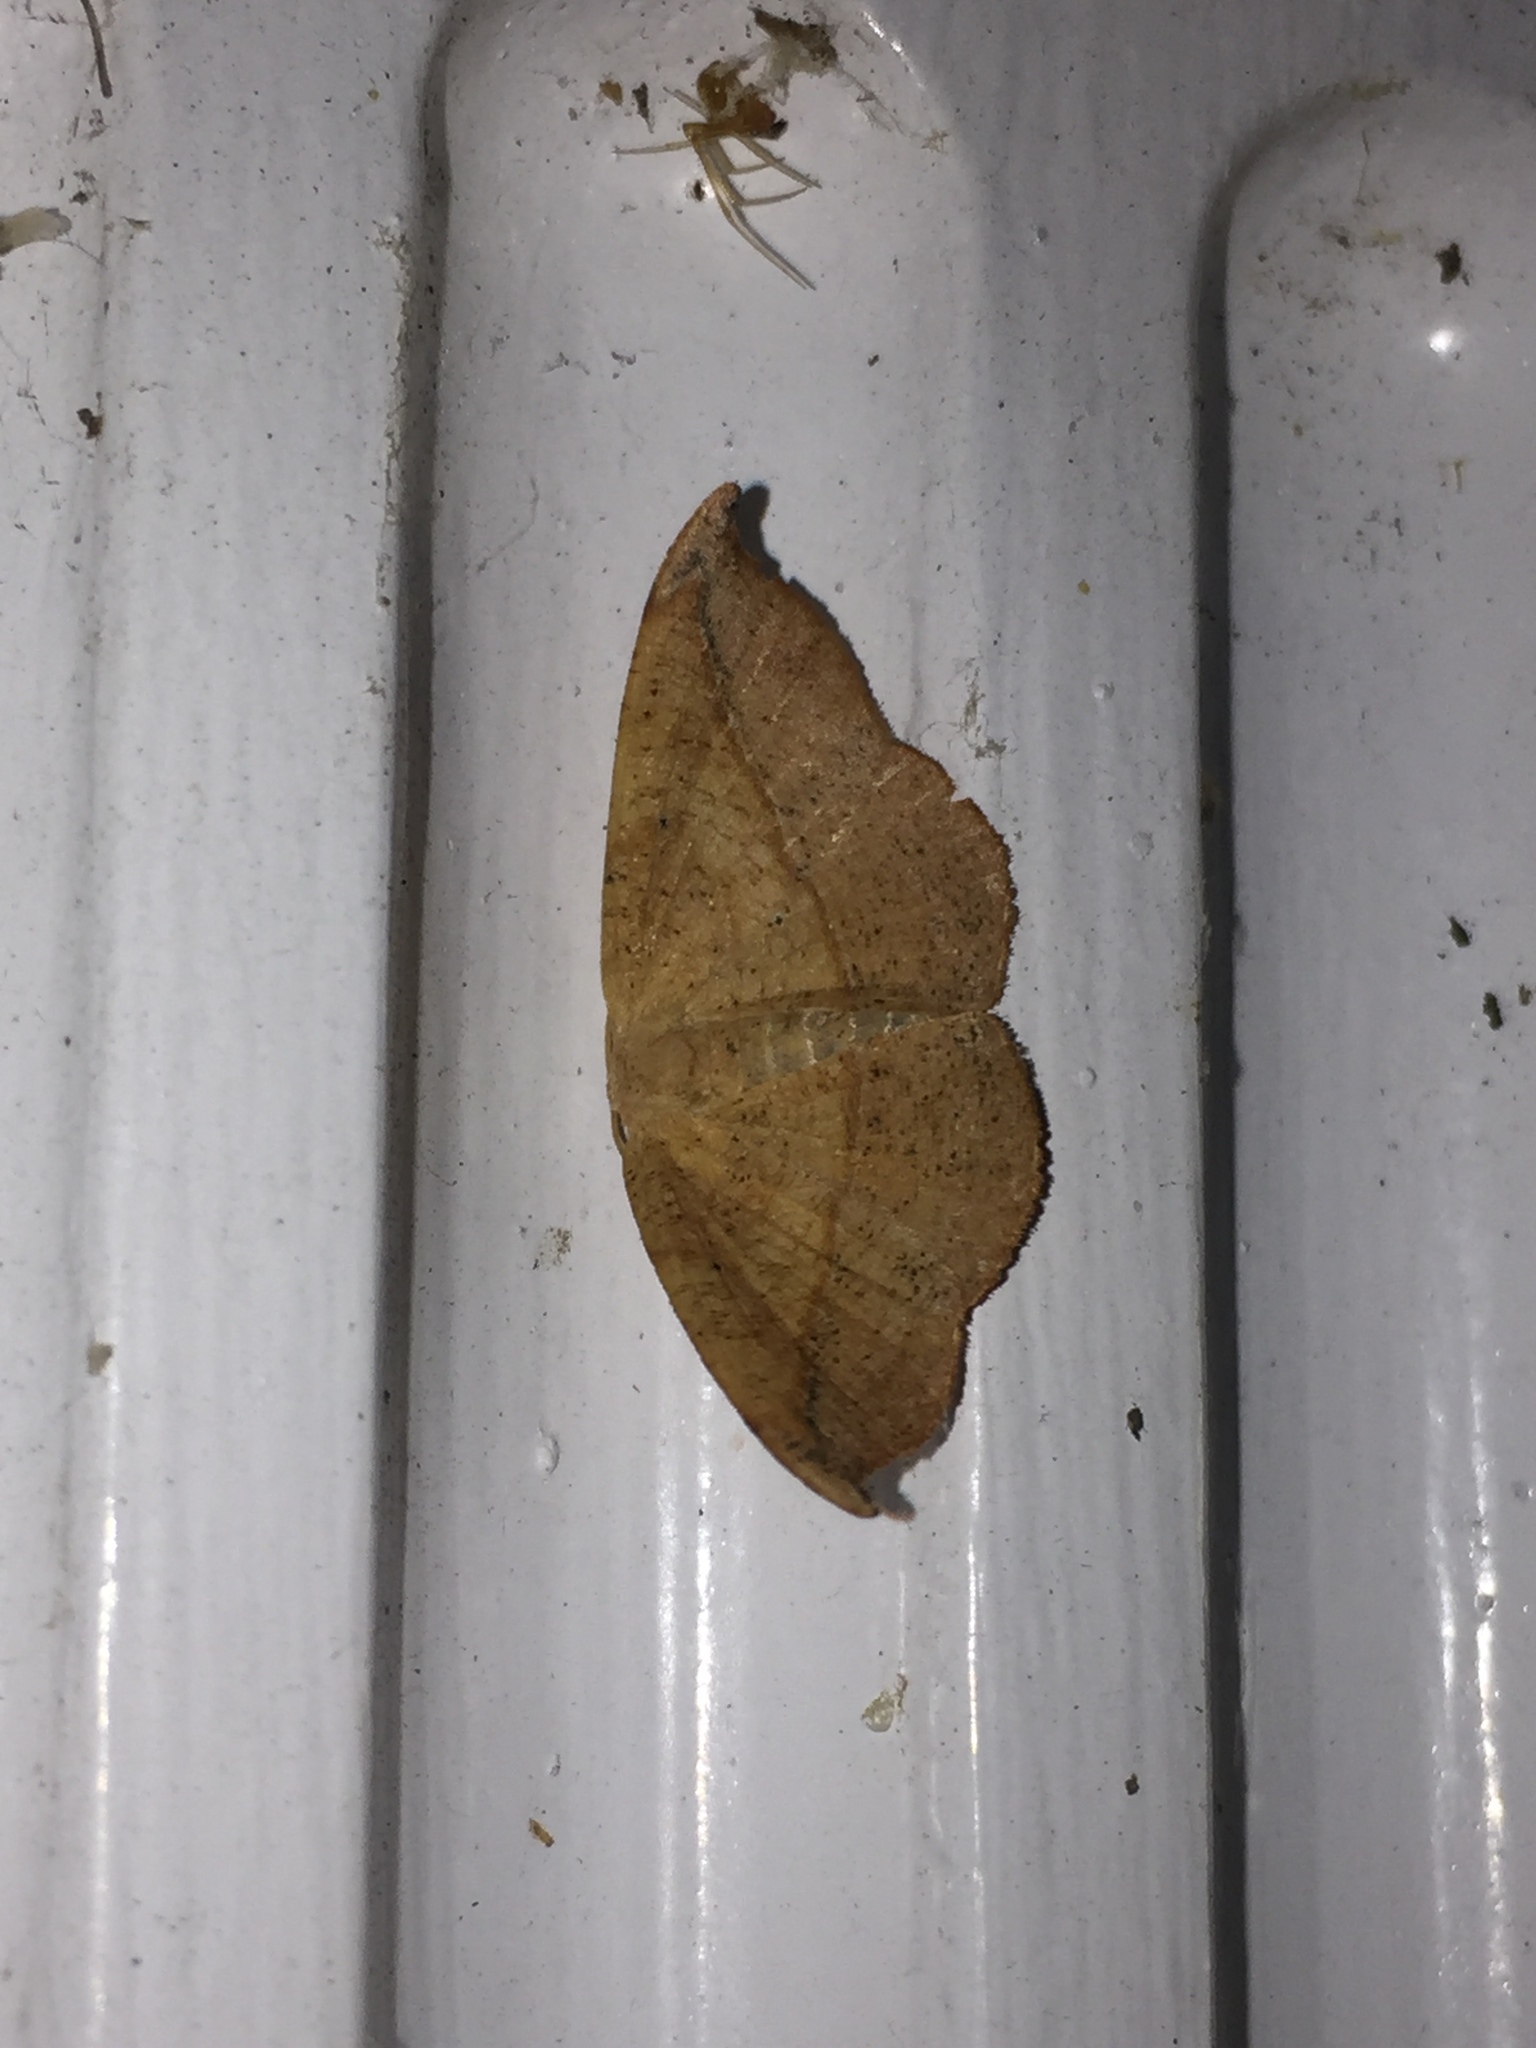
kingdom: Animalia
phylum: Arthropoda
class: Insecta
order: Lepidoptera
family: Geometridae
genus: Patalene
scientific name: Patalene olyzonaria
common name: Juniper geometer moth
